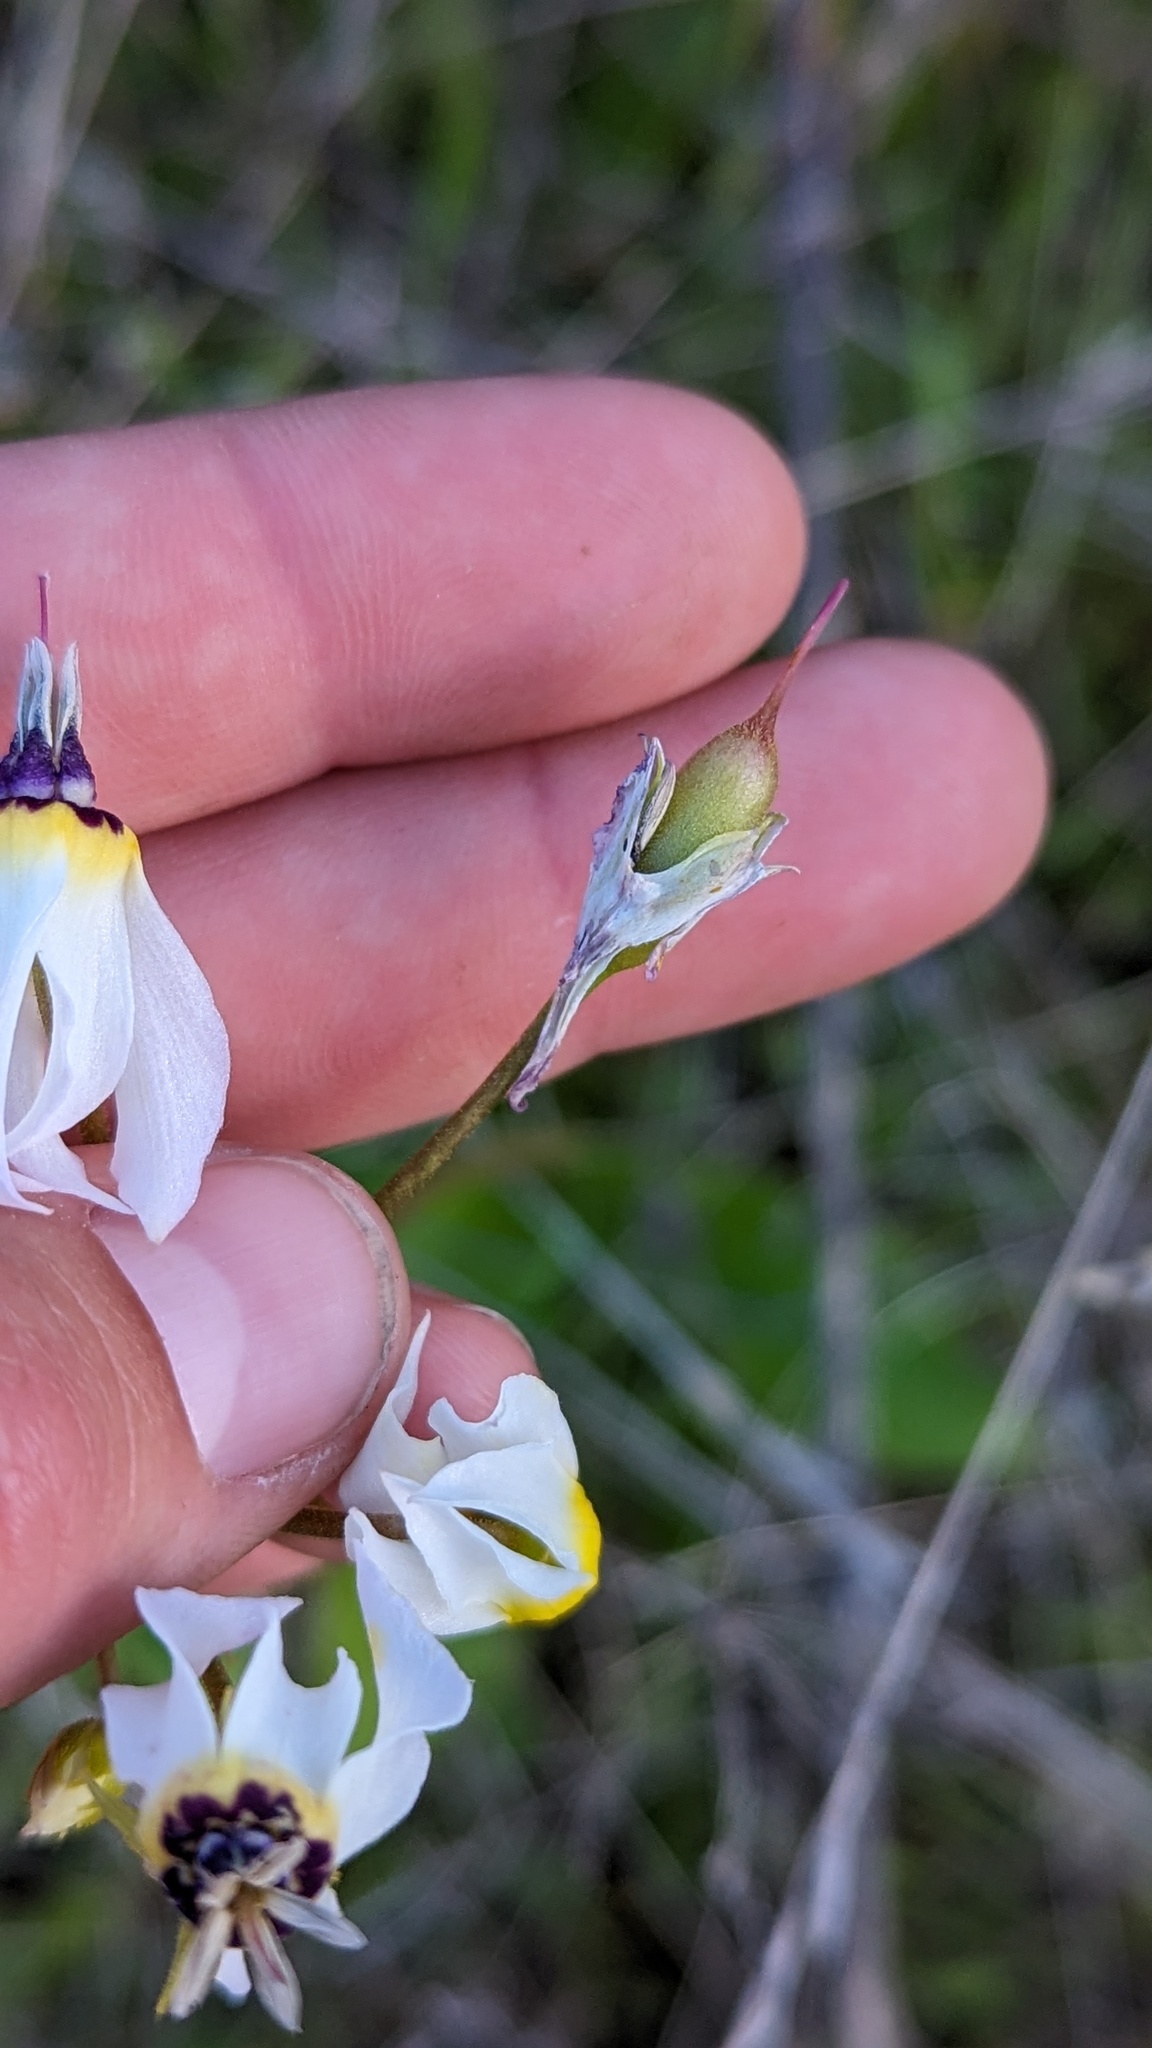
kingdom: Plantae
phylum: Tracheophyta
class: Magnoliopsida
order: Ericales
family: Primulaceae
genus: Dodecatheon
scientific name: Dodecatheon clevelandii
